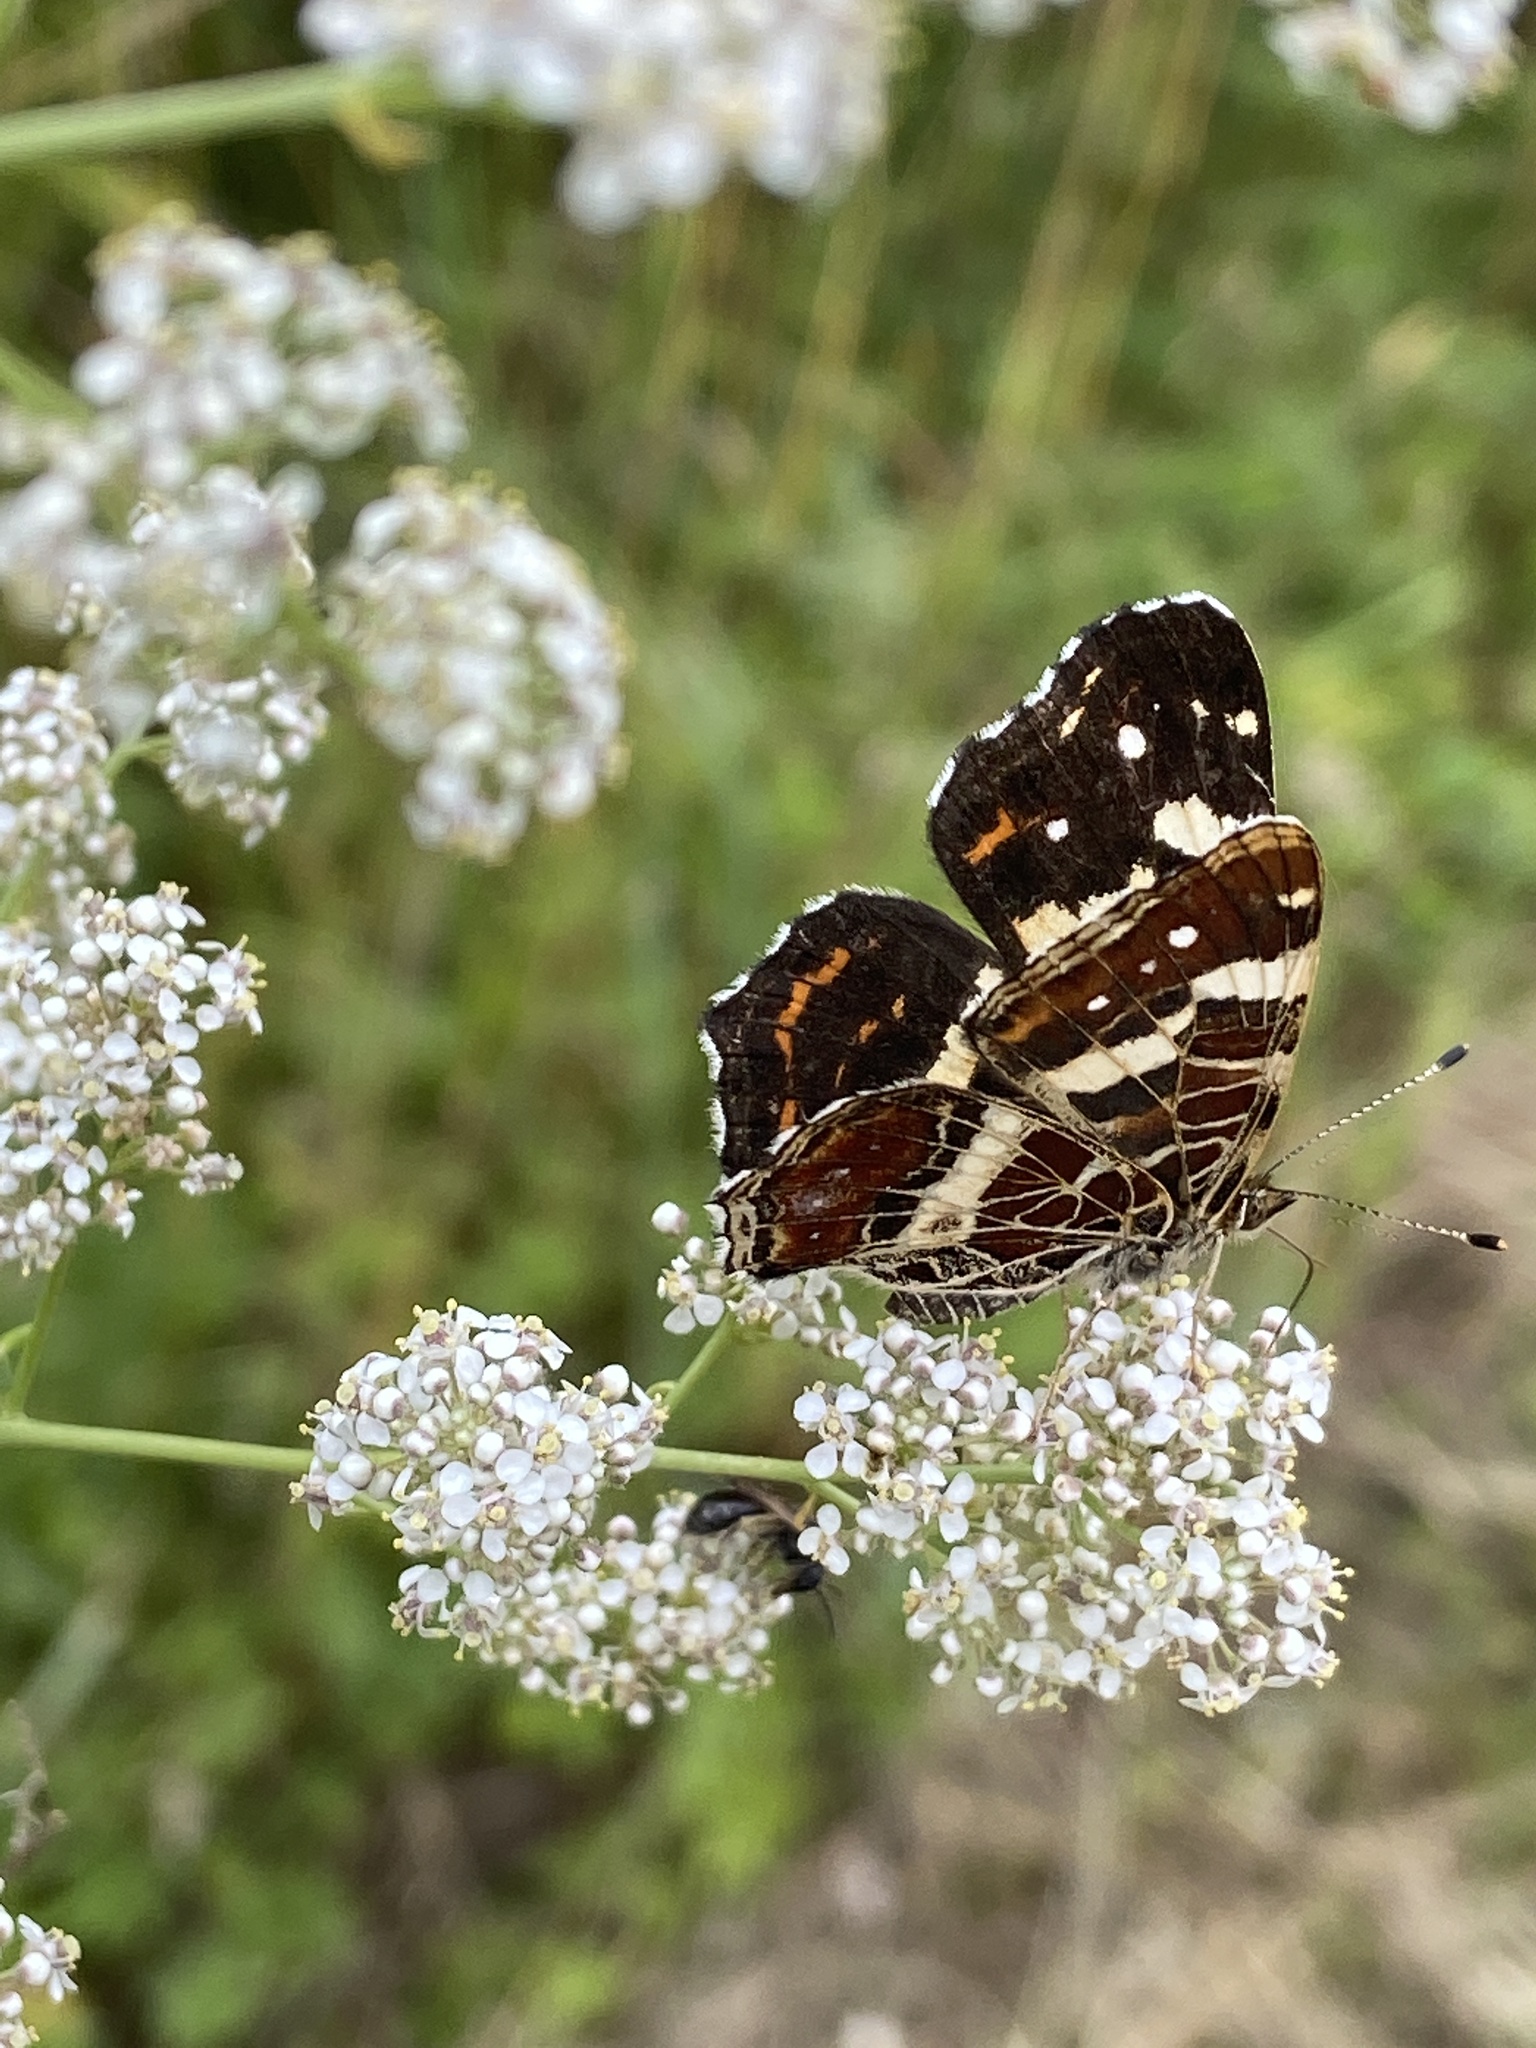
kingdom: Animalia
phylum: Arthropoda
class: Insecta
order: Lepidoptera
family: Nymphalidae
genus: Araschnia
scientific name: Araschnia levana
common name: Map butterfly
